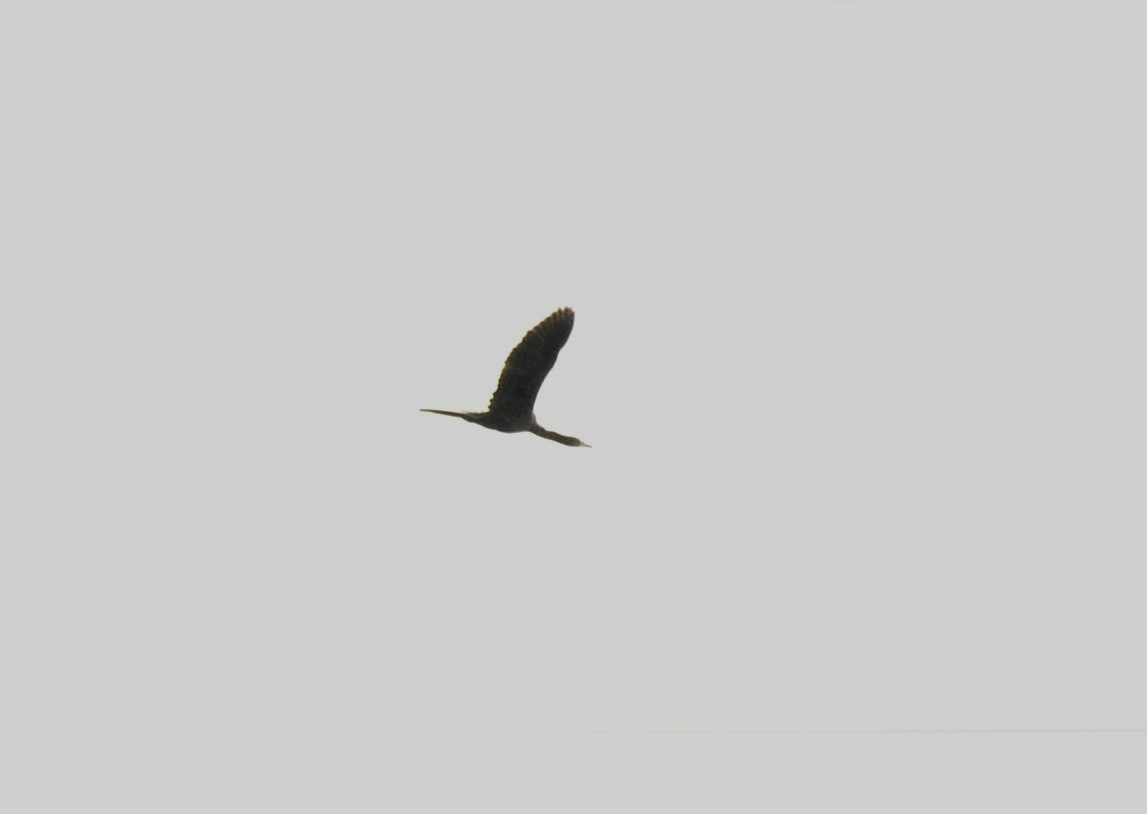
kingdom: Animalia
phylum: Chordata
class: Aves
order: Suliformes
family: Phalacrocoracidae
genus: Microcarbo
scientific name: Microcarbo niger
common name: Little cormorant
